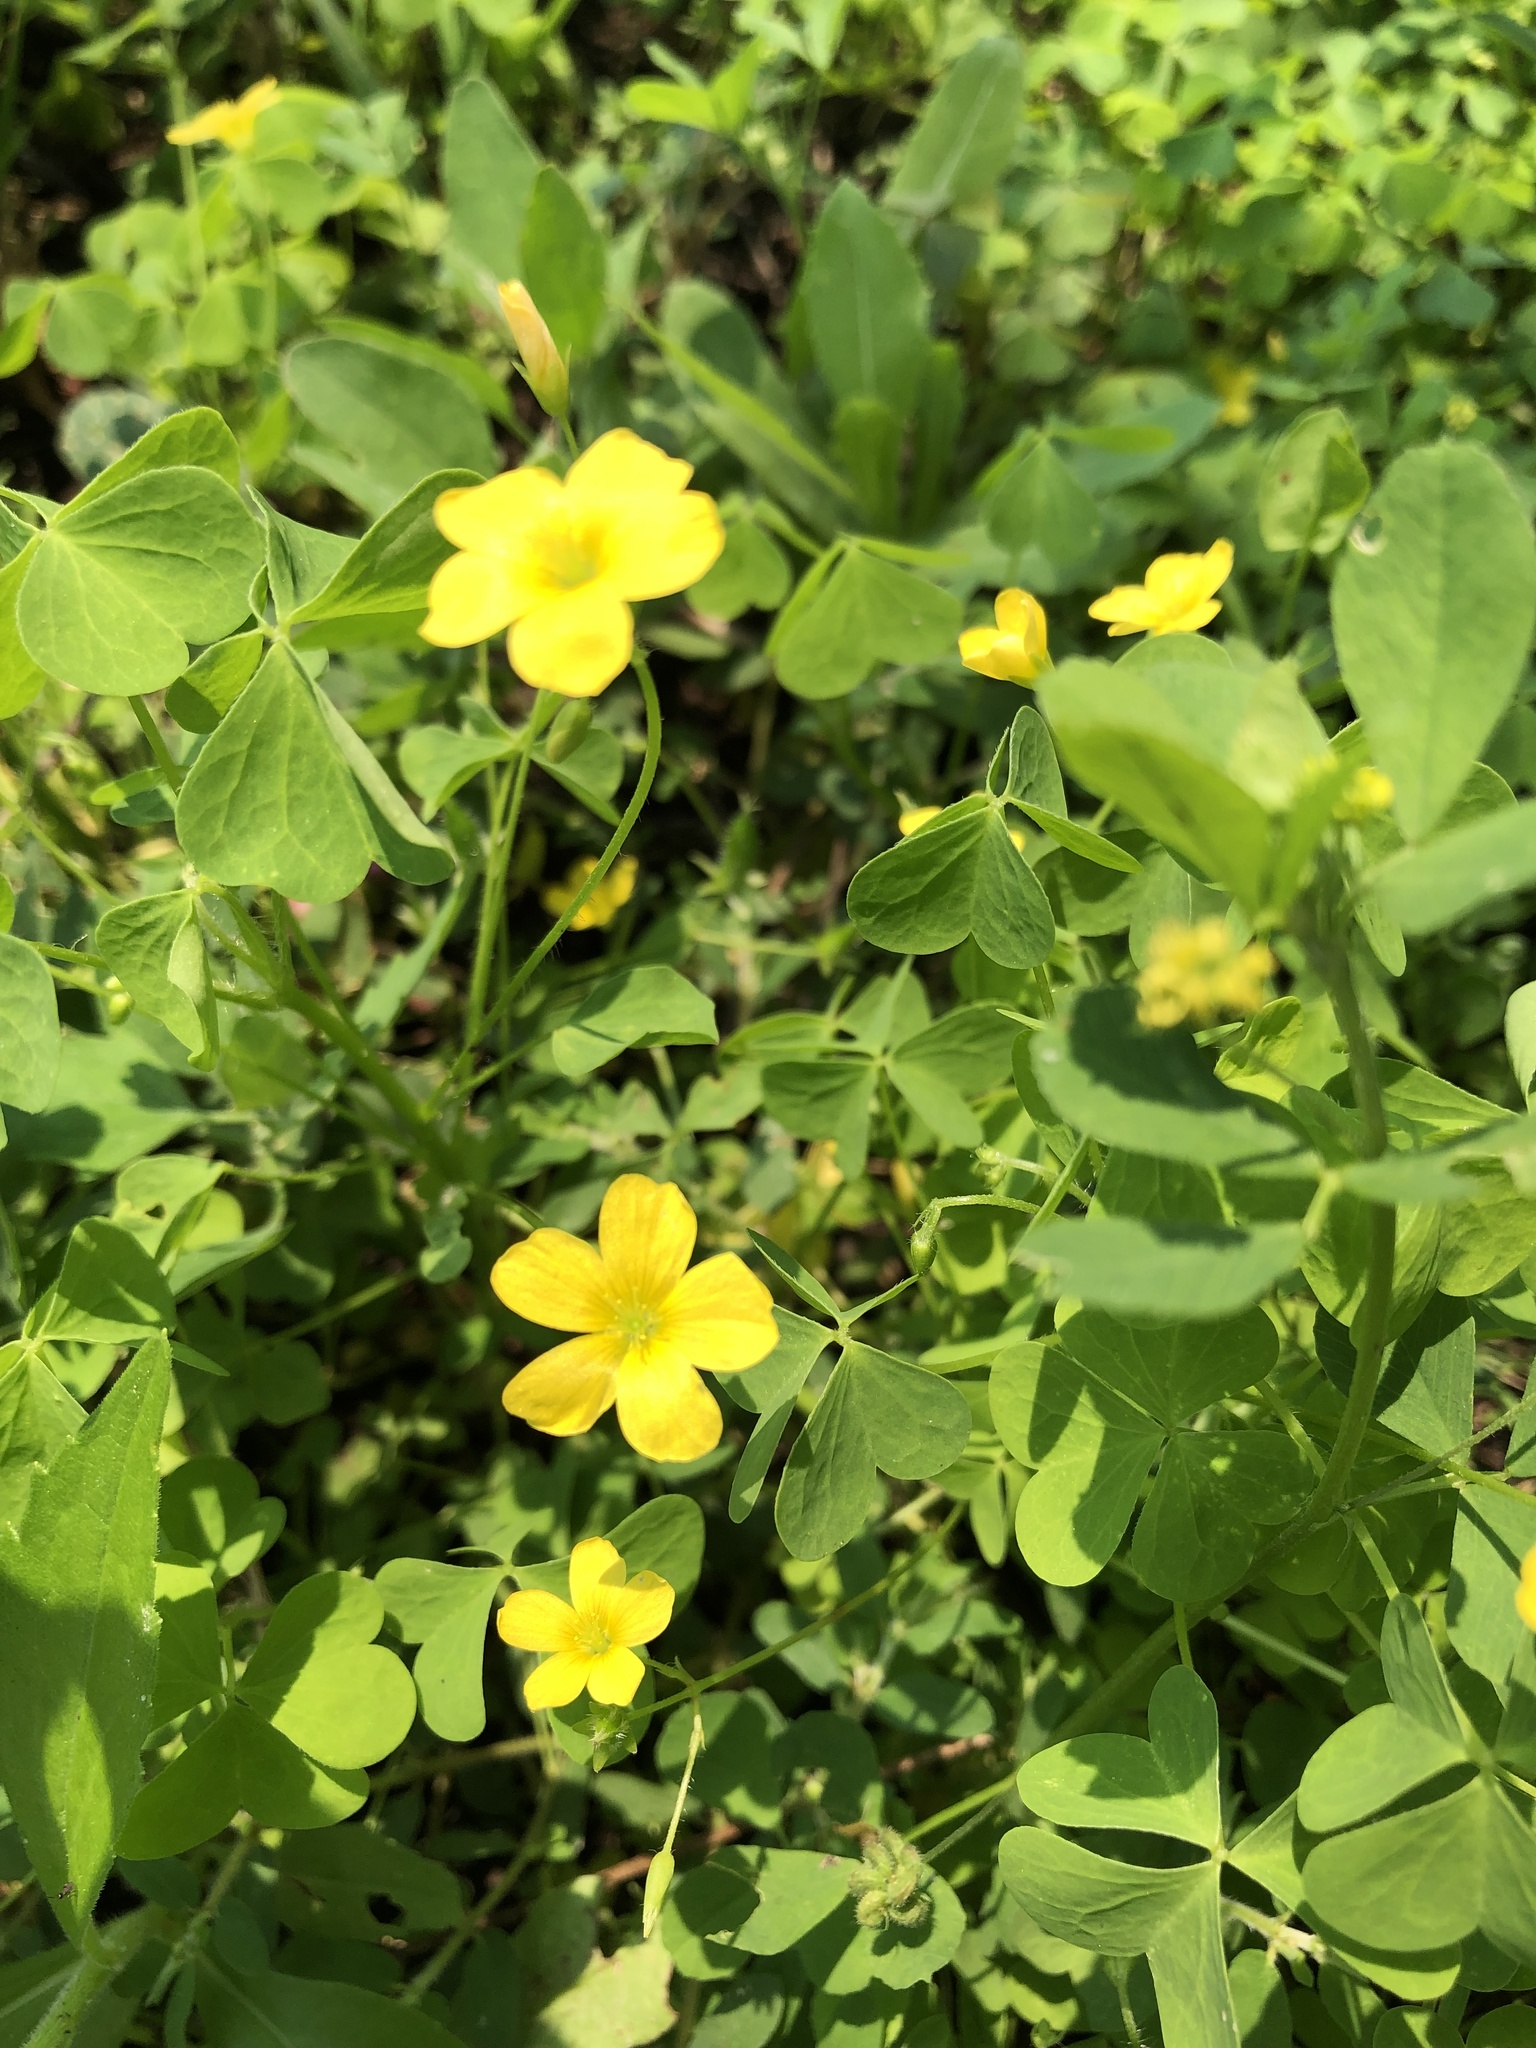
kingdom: Plantae
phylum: Tracheophyta
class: Magnoliopsida
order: Oxalidales
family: Oxalidaceae
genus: Oxalis
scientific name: Oxalis stricta
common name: Upright yellow-sorrel
